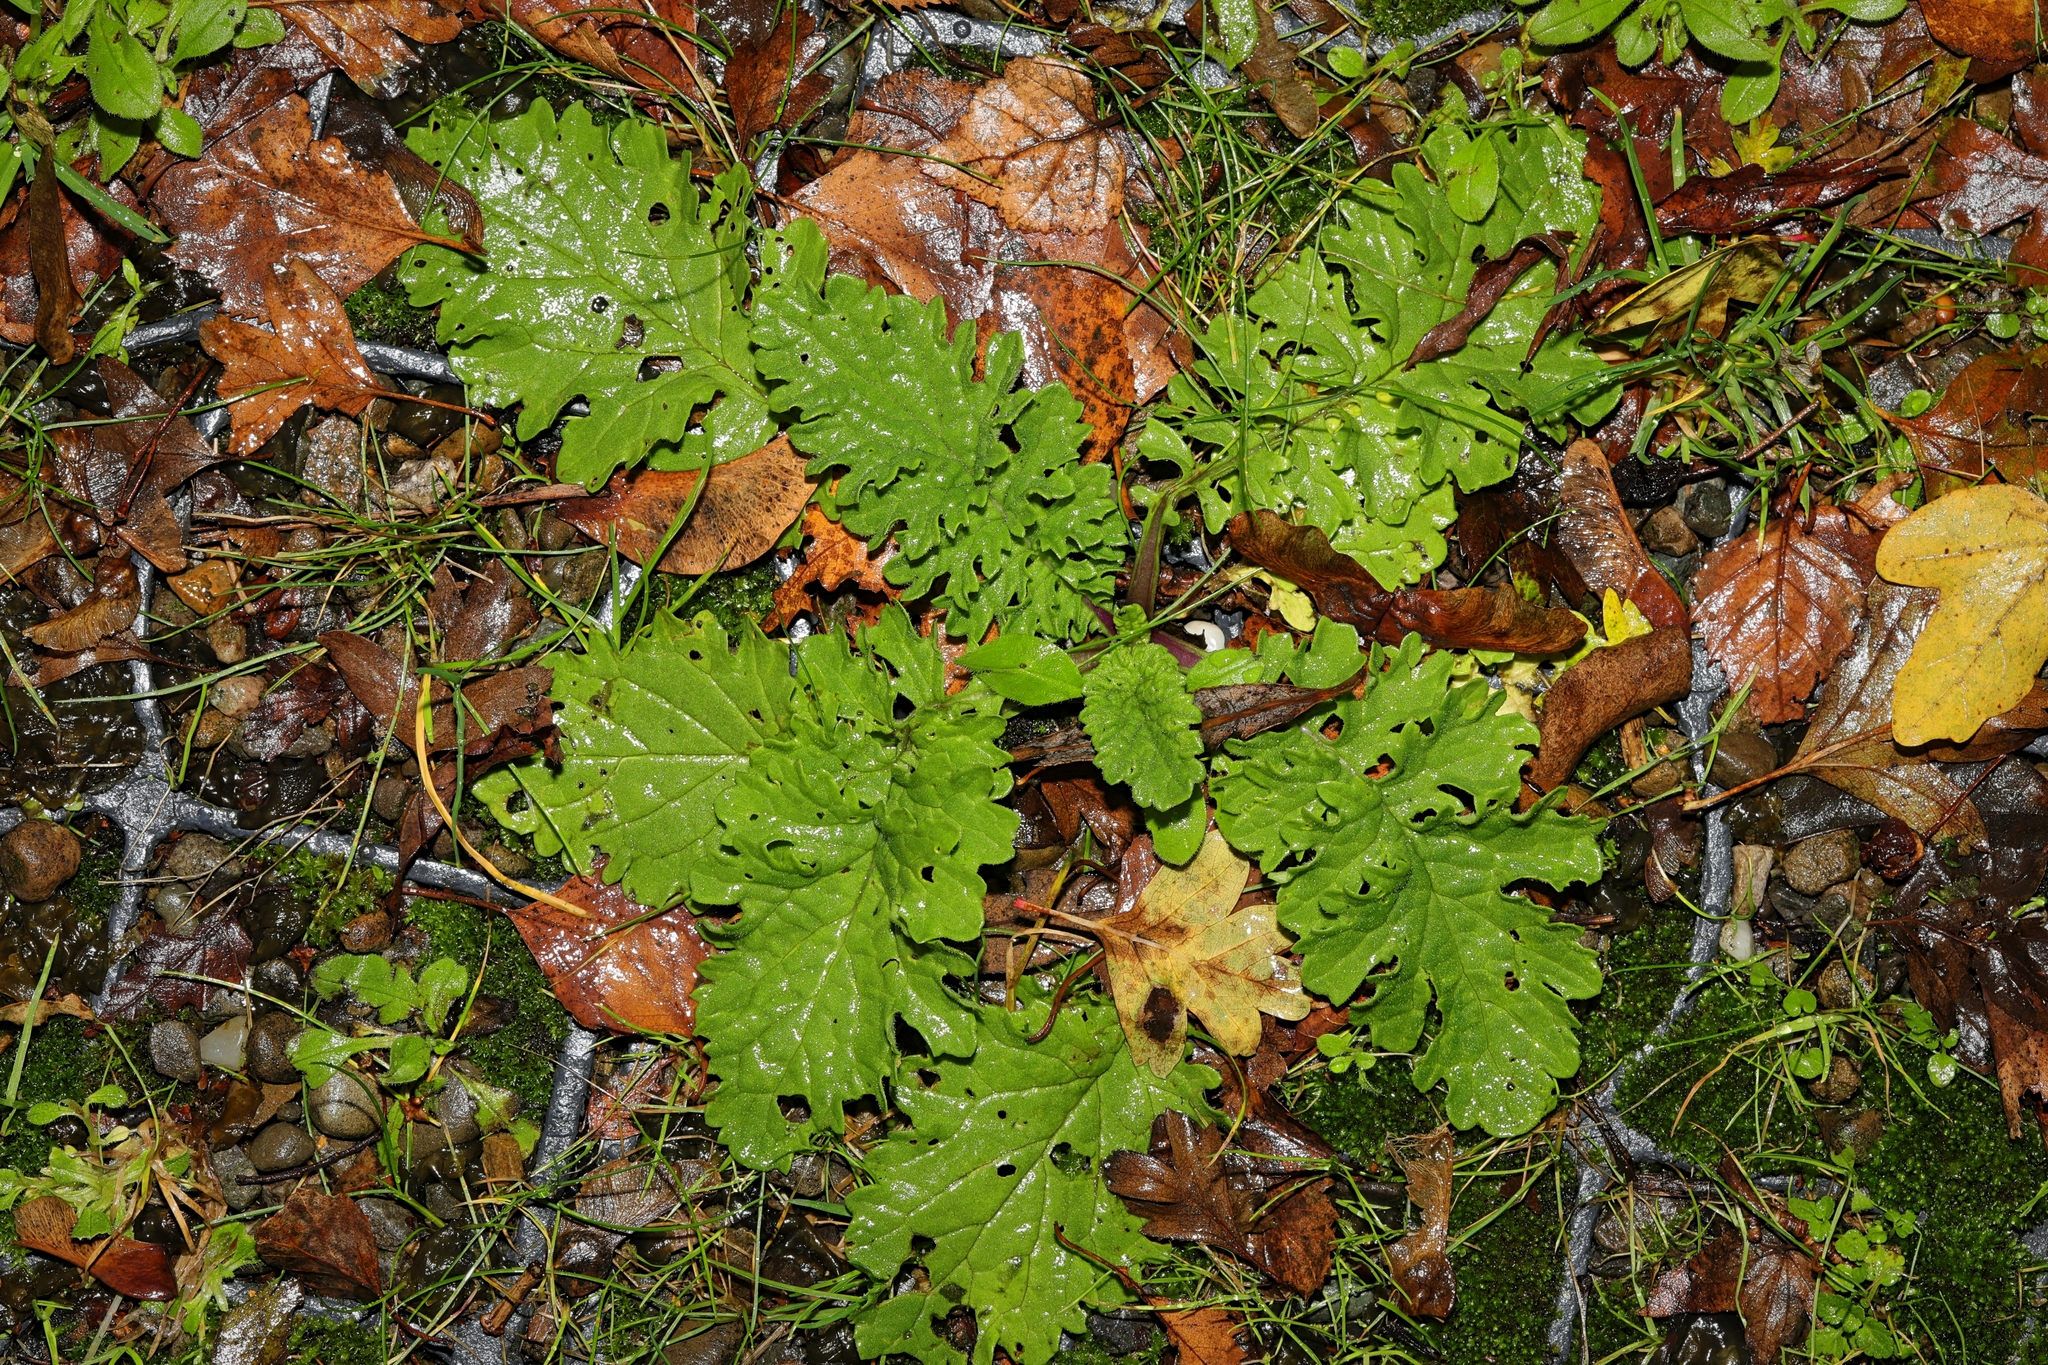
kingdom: Plantae
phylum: Tracheophyta
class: Magnoliopsida
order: Asterales
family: Asteraceae
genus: Jacobaea
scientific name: Jacobaea vulgaris
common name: Stinking willie
